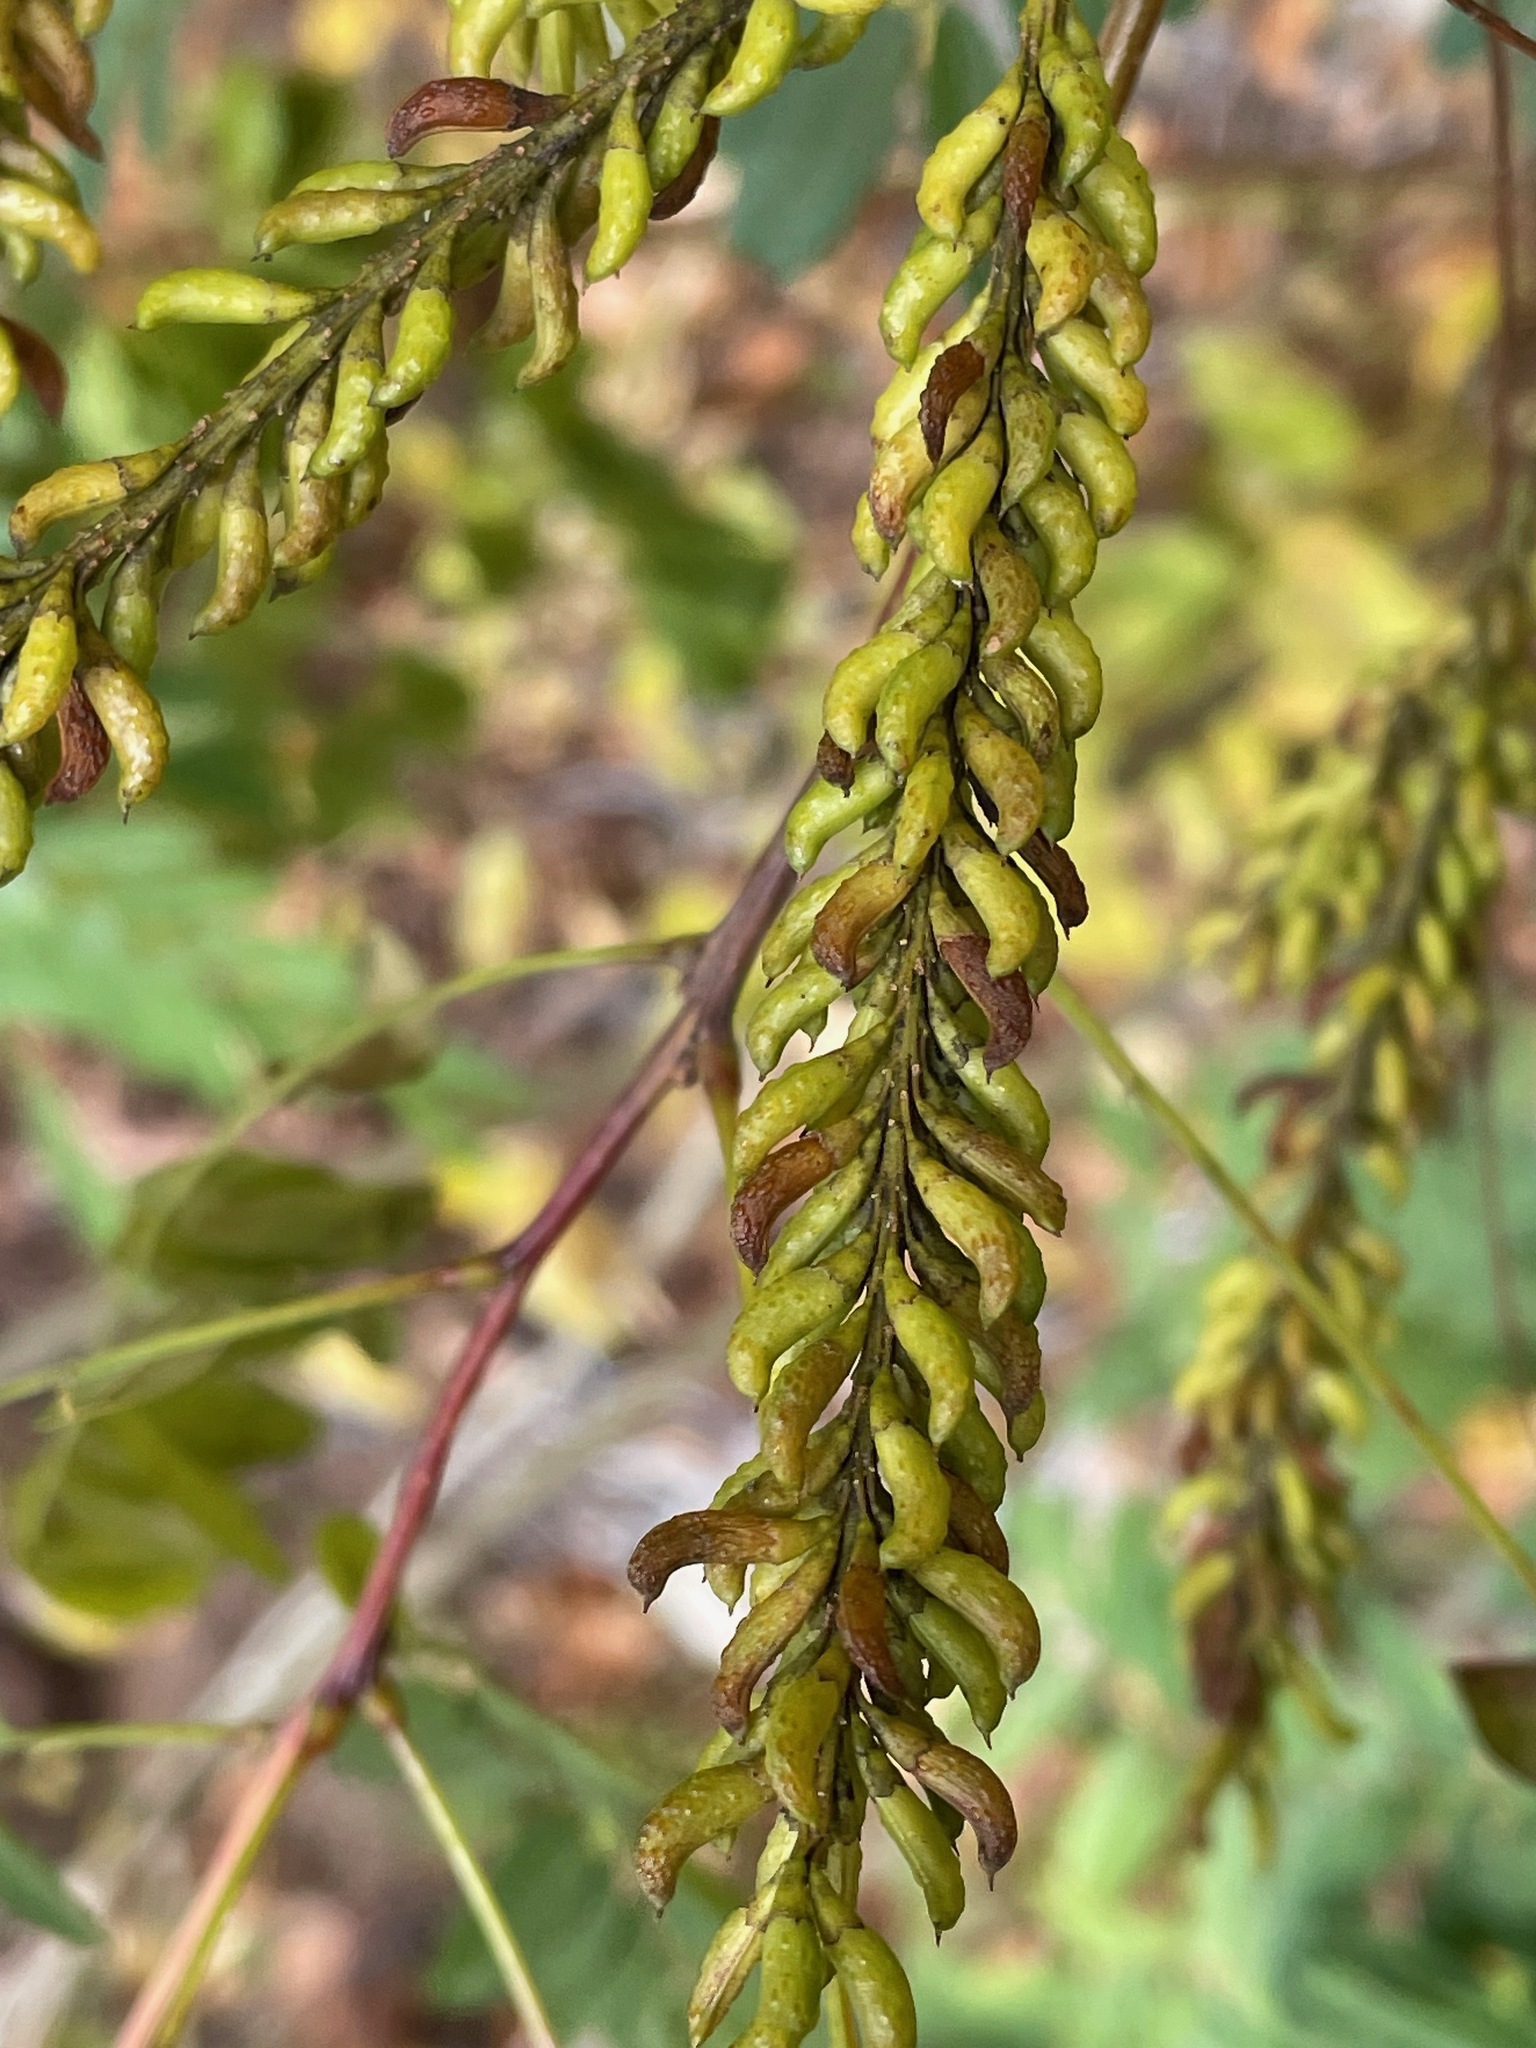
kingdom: Plantae
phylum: Tracheophyta
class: Magnoliopsida
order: Fabales
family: Fabaceae
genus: Amorpha
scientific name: Amorpha fruticosa
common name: False indigo
